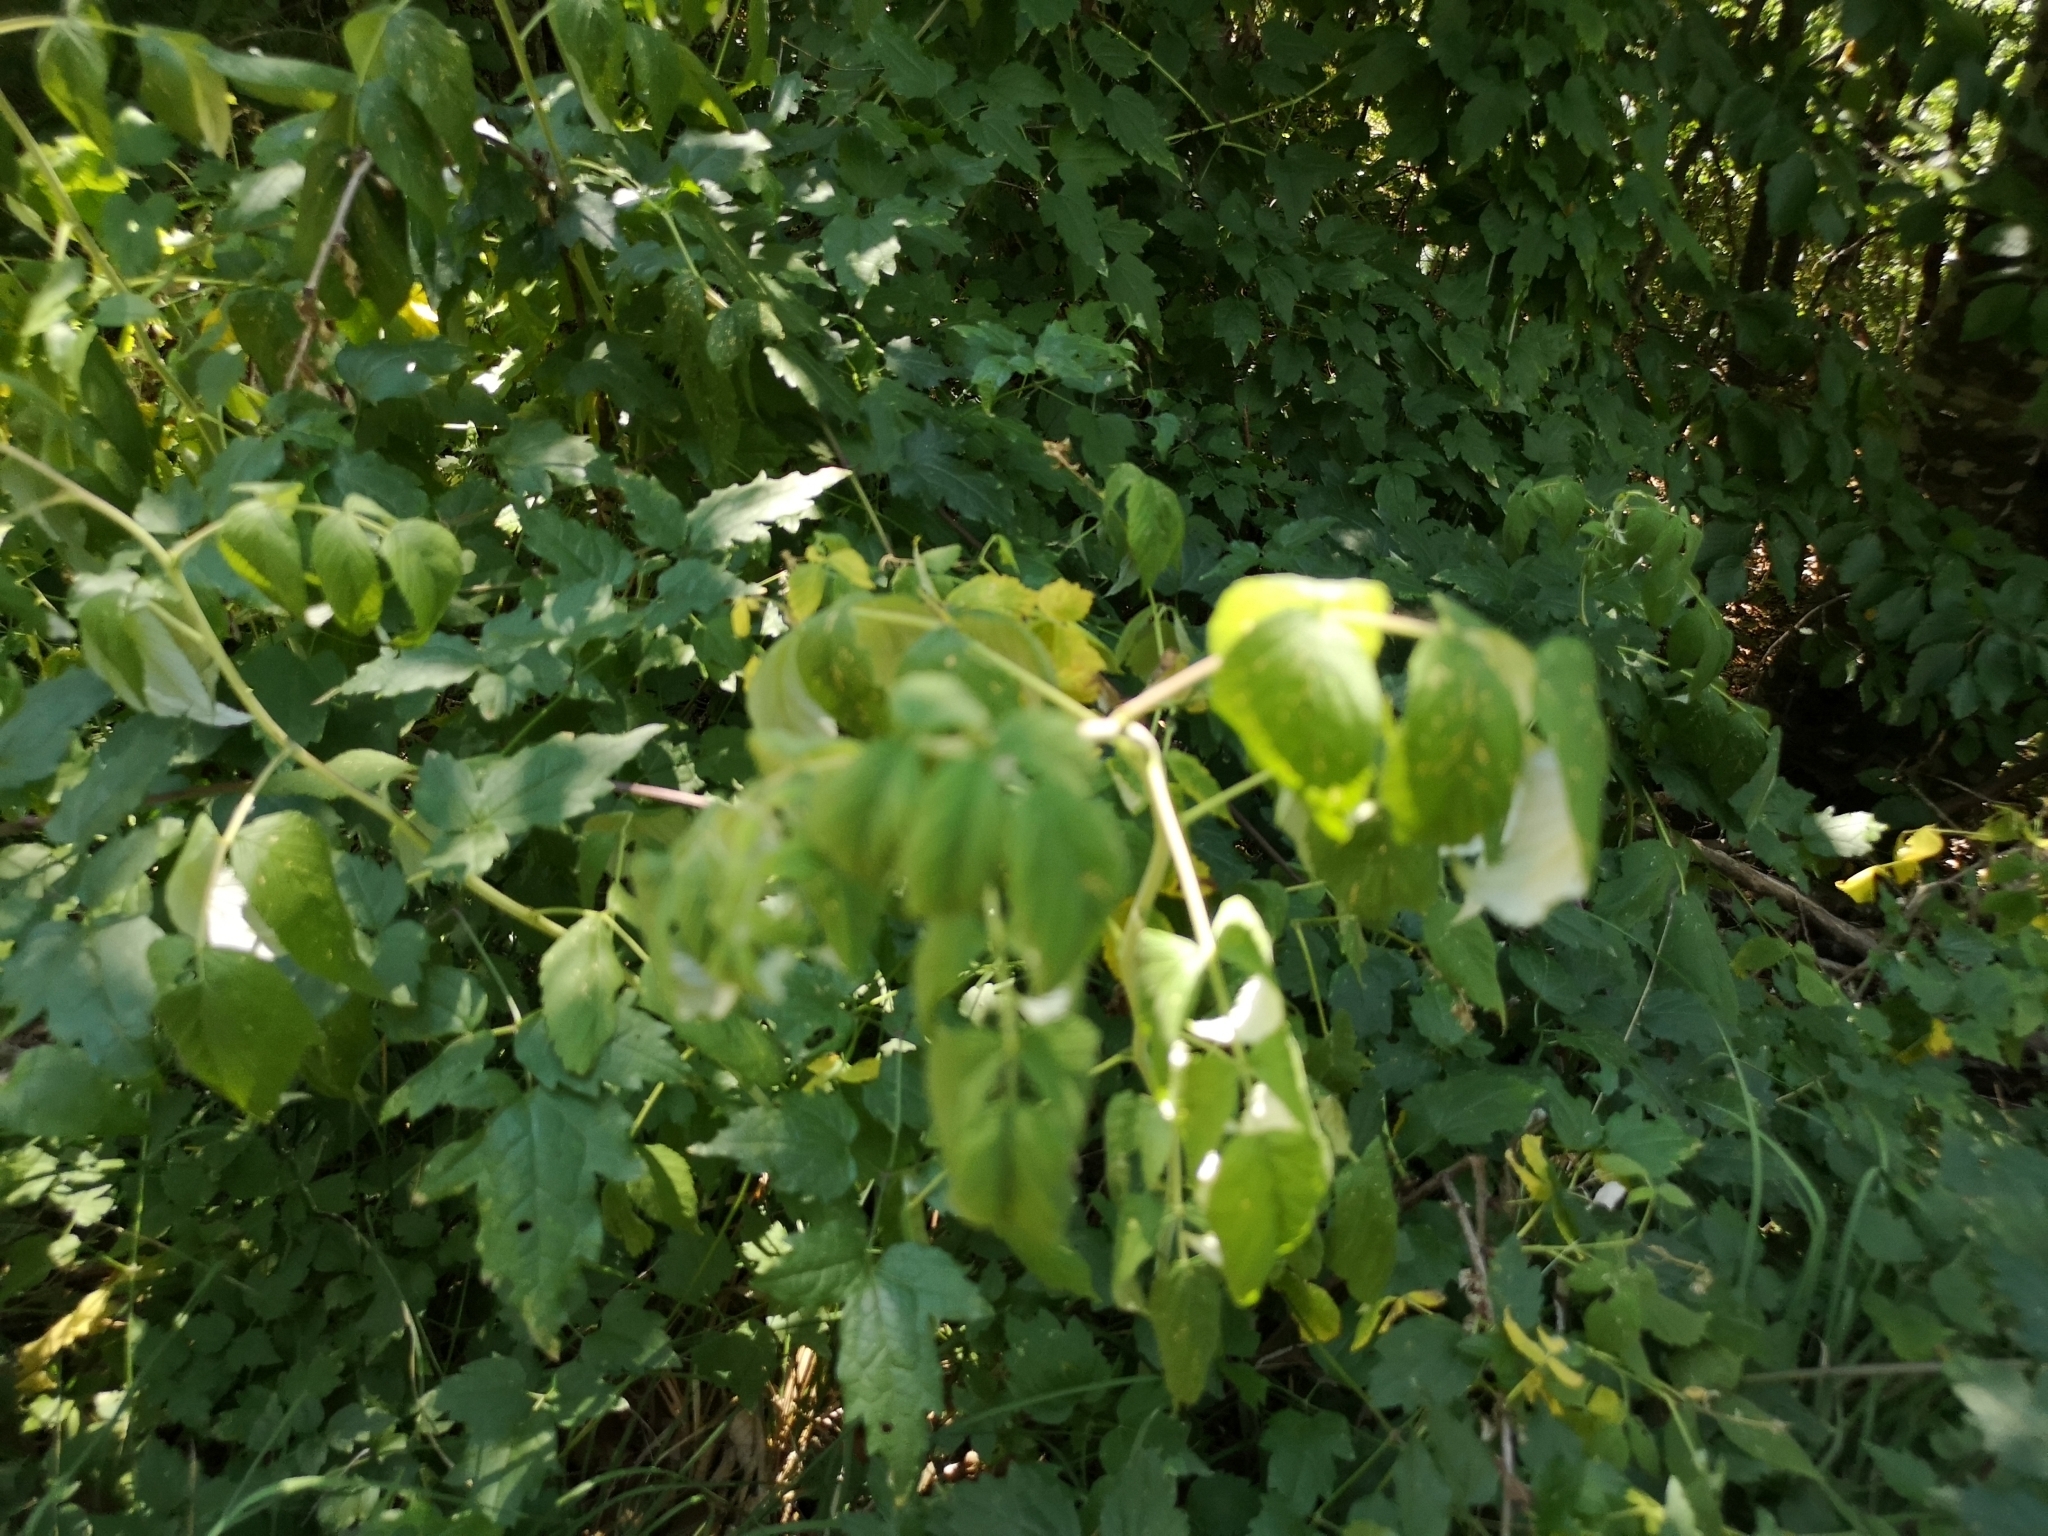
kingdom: Plantae
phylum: Tracheophyta
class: Magnoliopsida
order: Rosales
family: Rosaceae
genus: Rubus
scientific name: Rubus idaeus
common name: Raspberry
